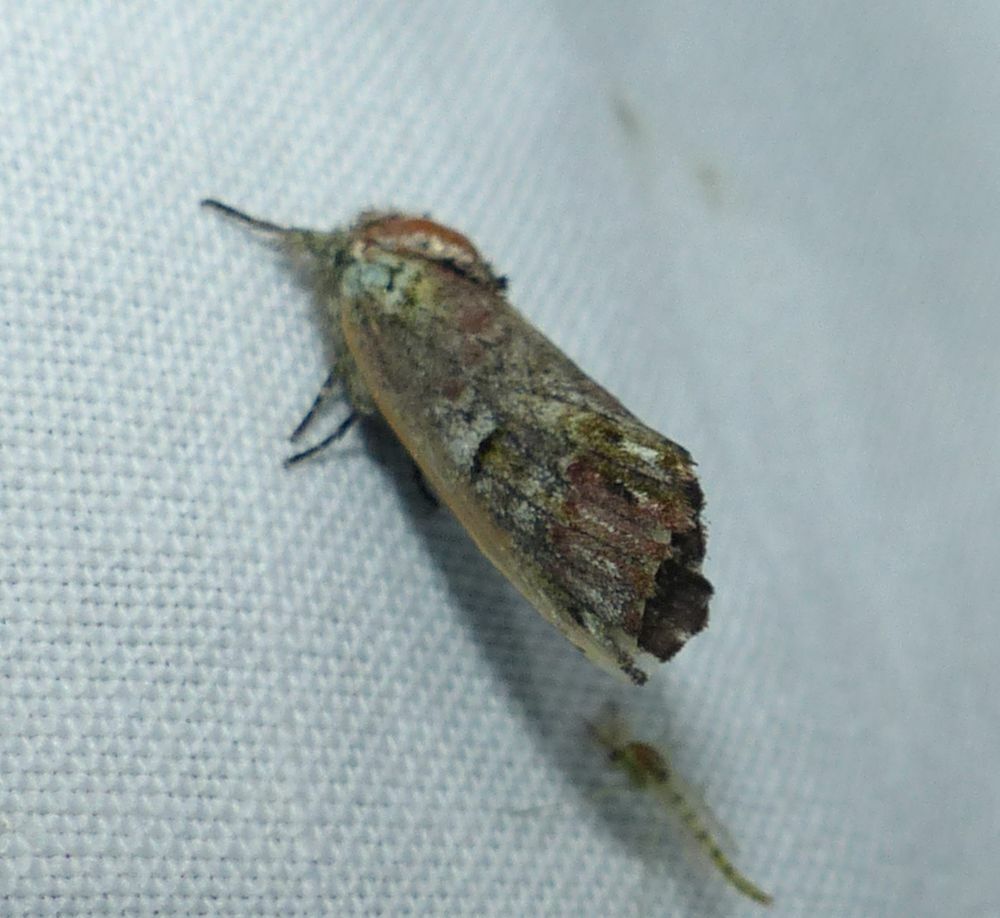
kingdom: Animalia
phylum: Arthropoda
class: Insecta
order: Lepidoptera
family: Notodontidae
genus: Schizura
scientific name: Schizura
